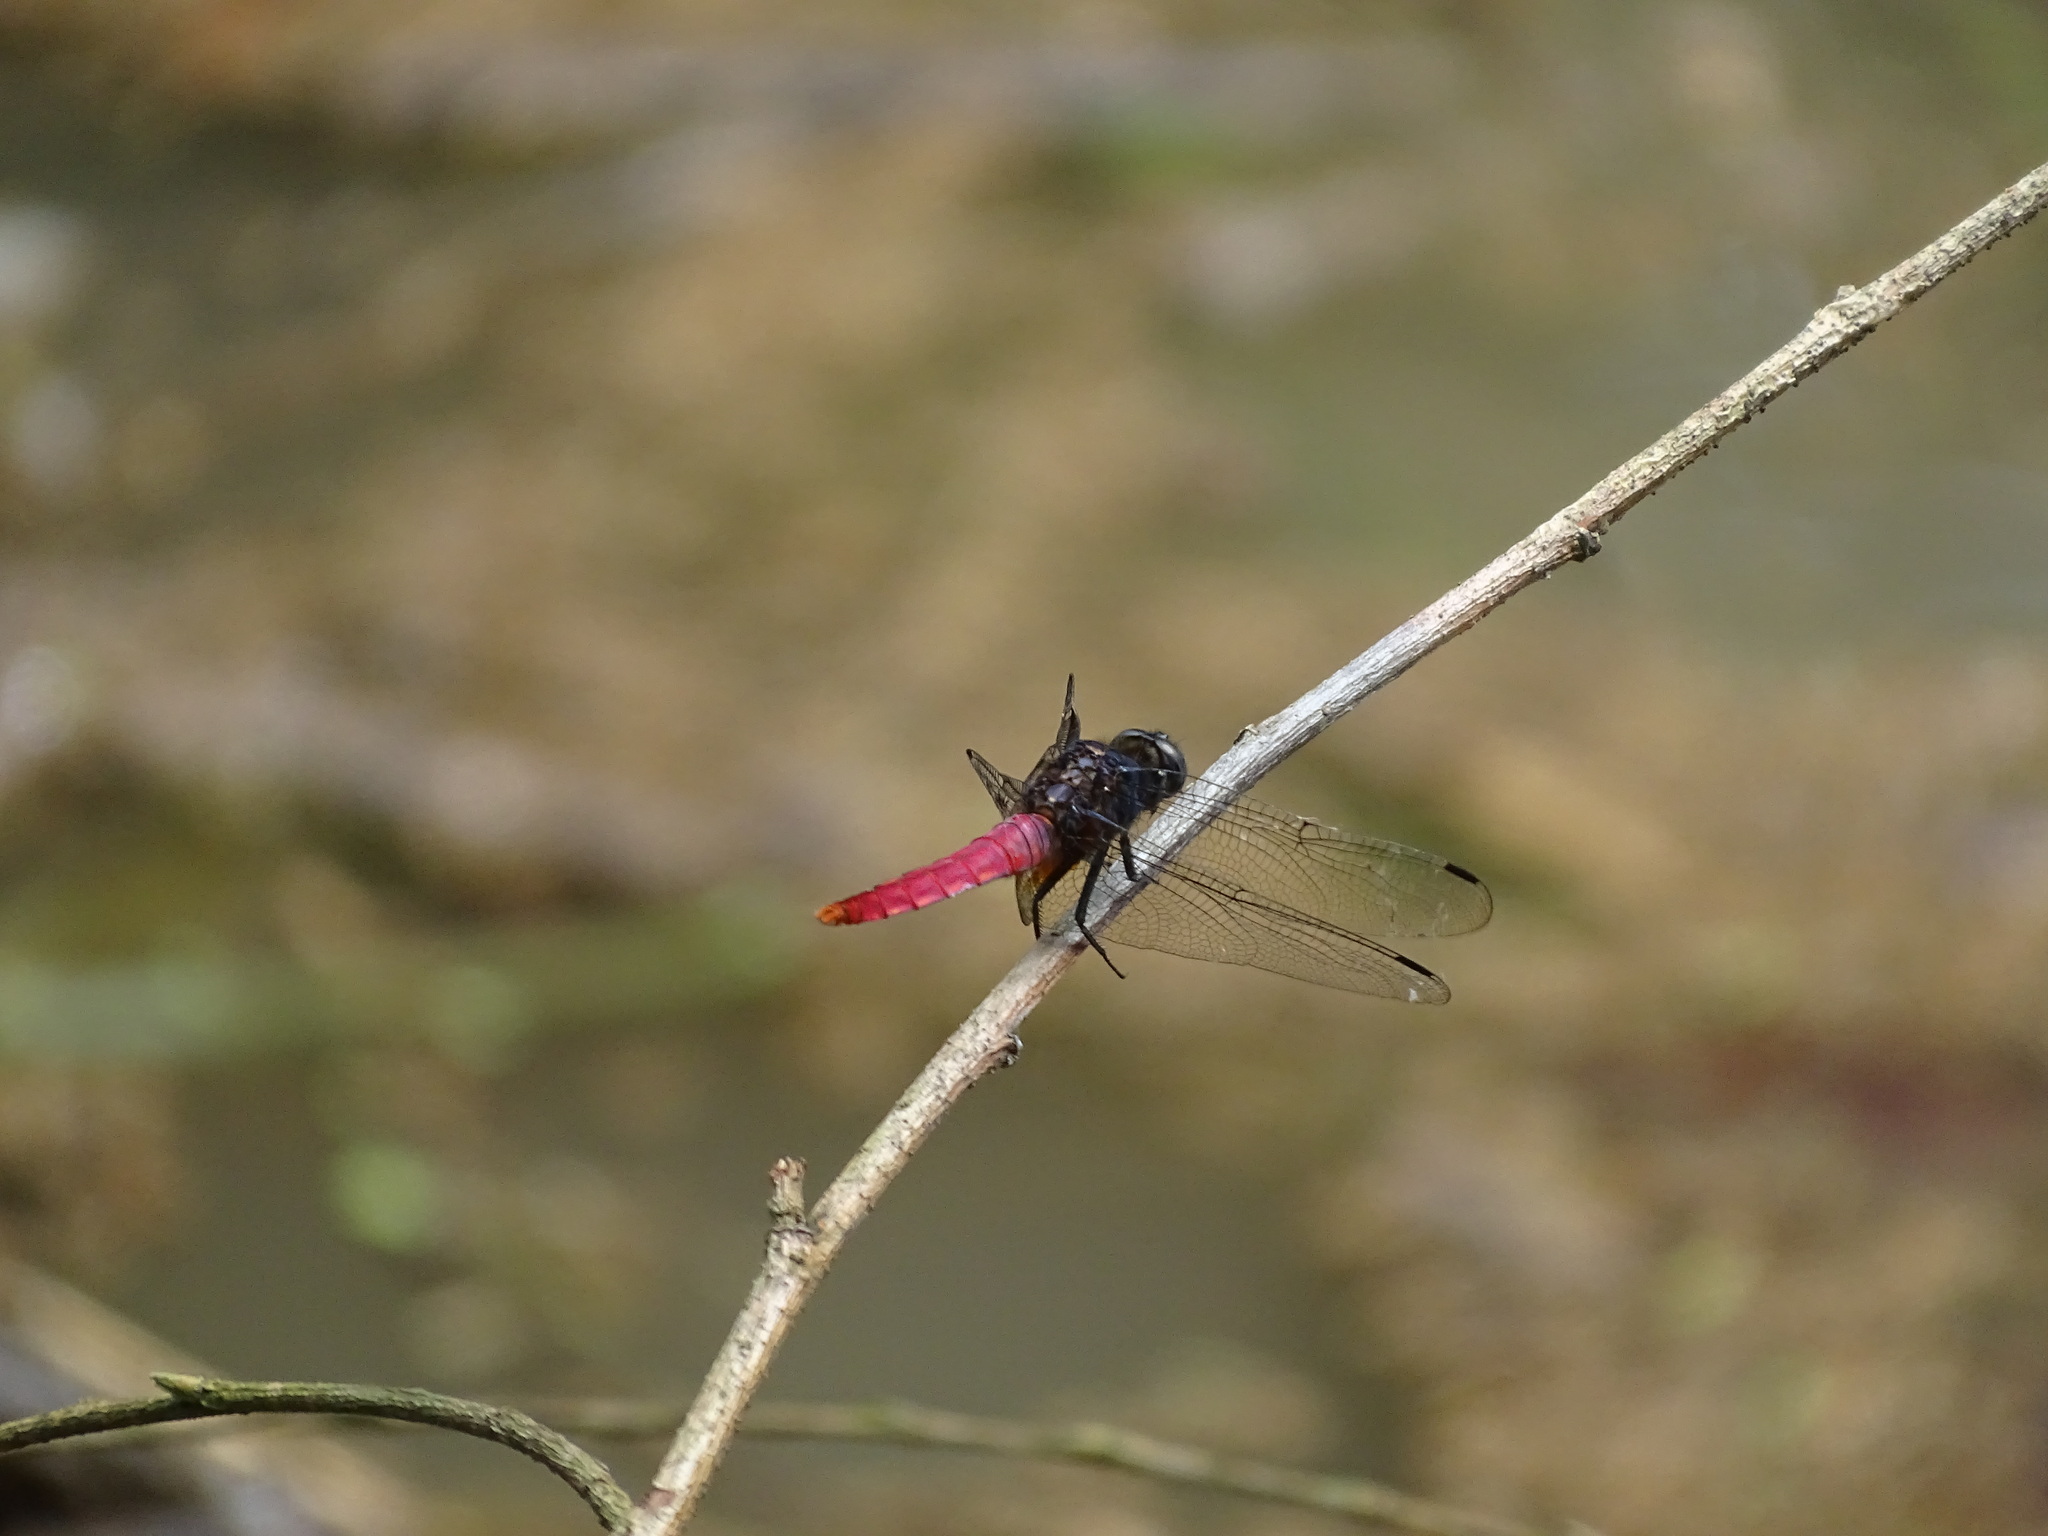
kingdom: Animalia
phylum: Arthropoda
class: Insecta
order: Odonata
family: Libellulidae
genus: Orthetrum
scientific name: Orthetrum pruinosum
